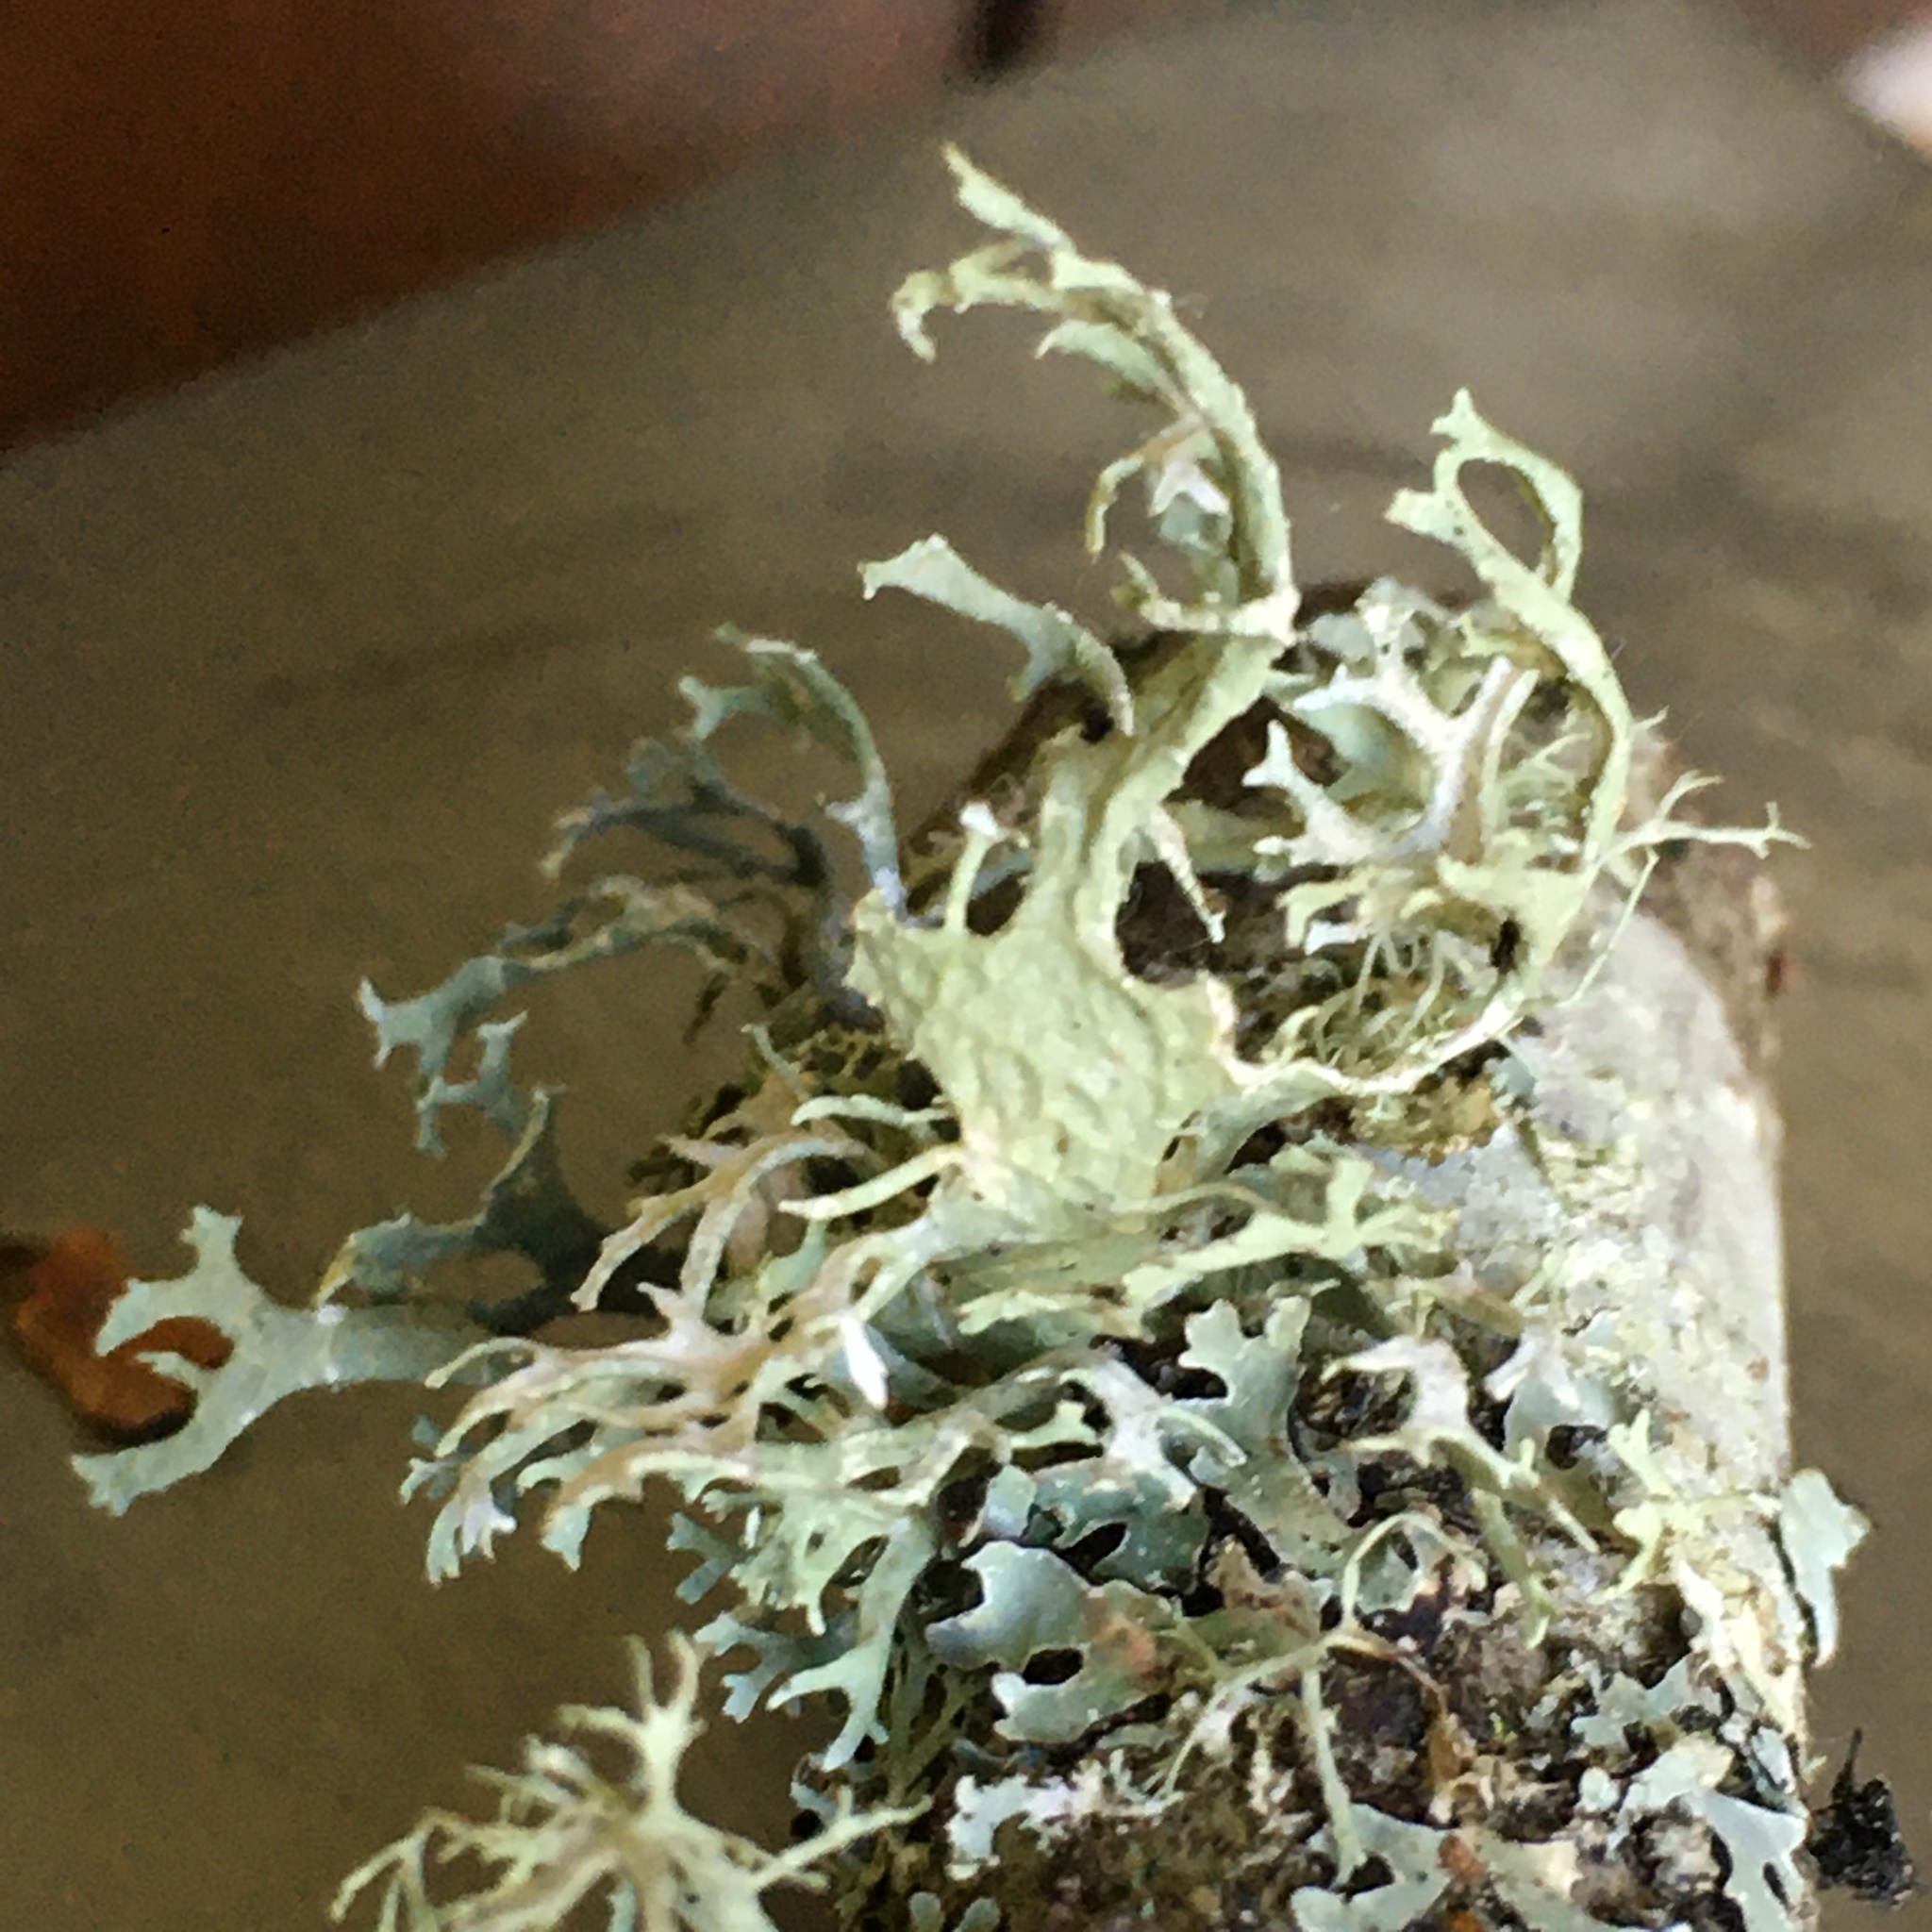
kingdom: Fungi
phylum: Ascomycota
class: Lecanoromycetes
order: Lecanorales
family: Parmeliaceae
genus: Evernia
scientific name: Evernia prunastri
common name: Oak moss
